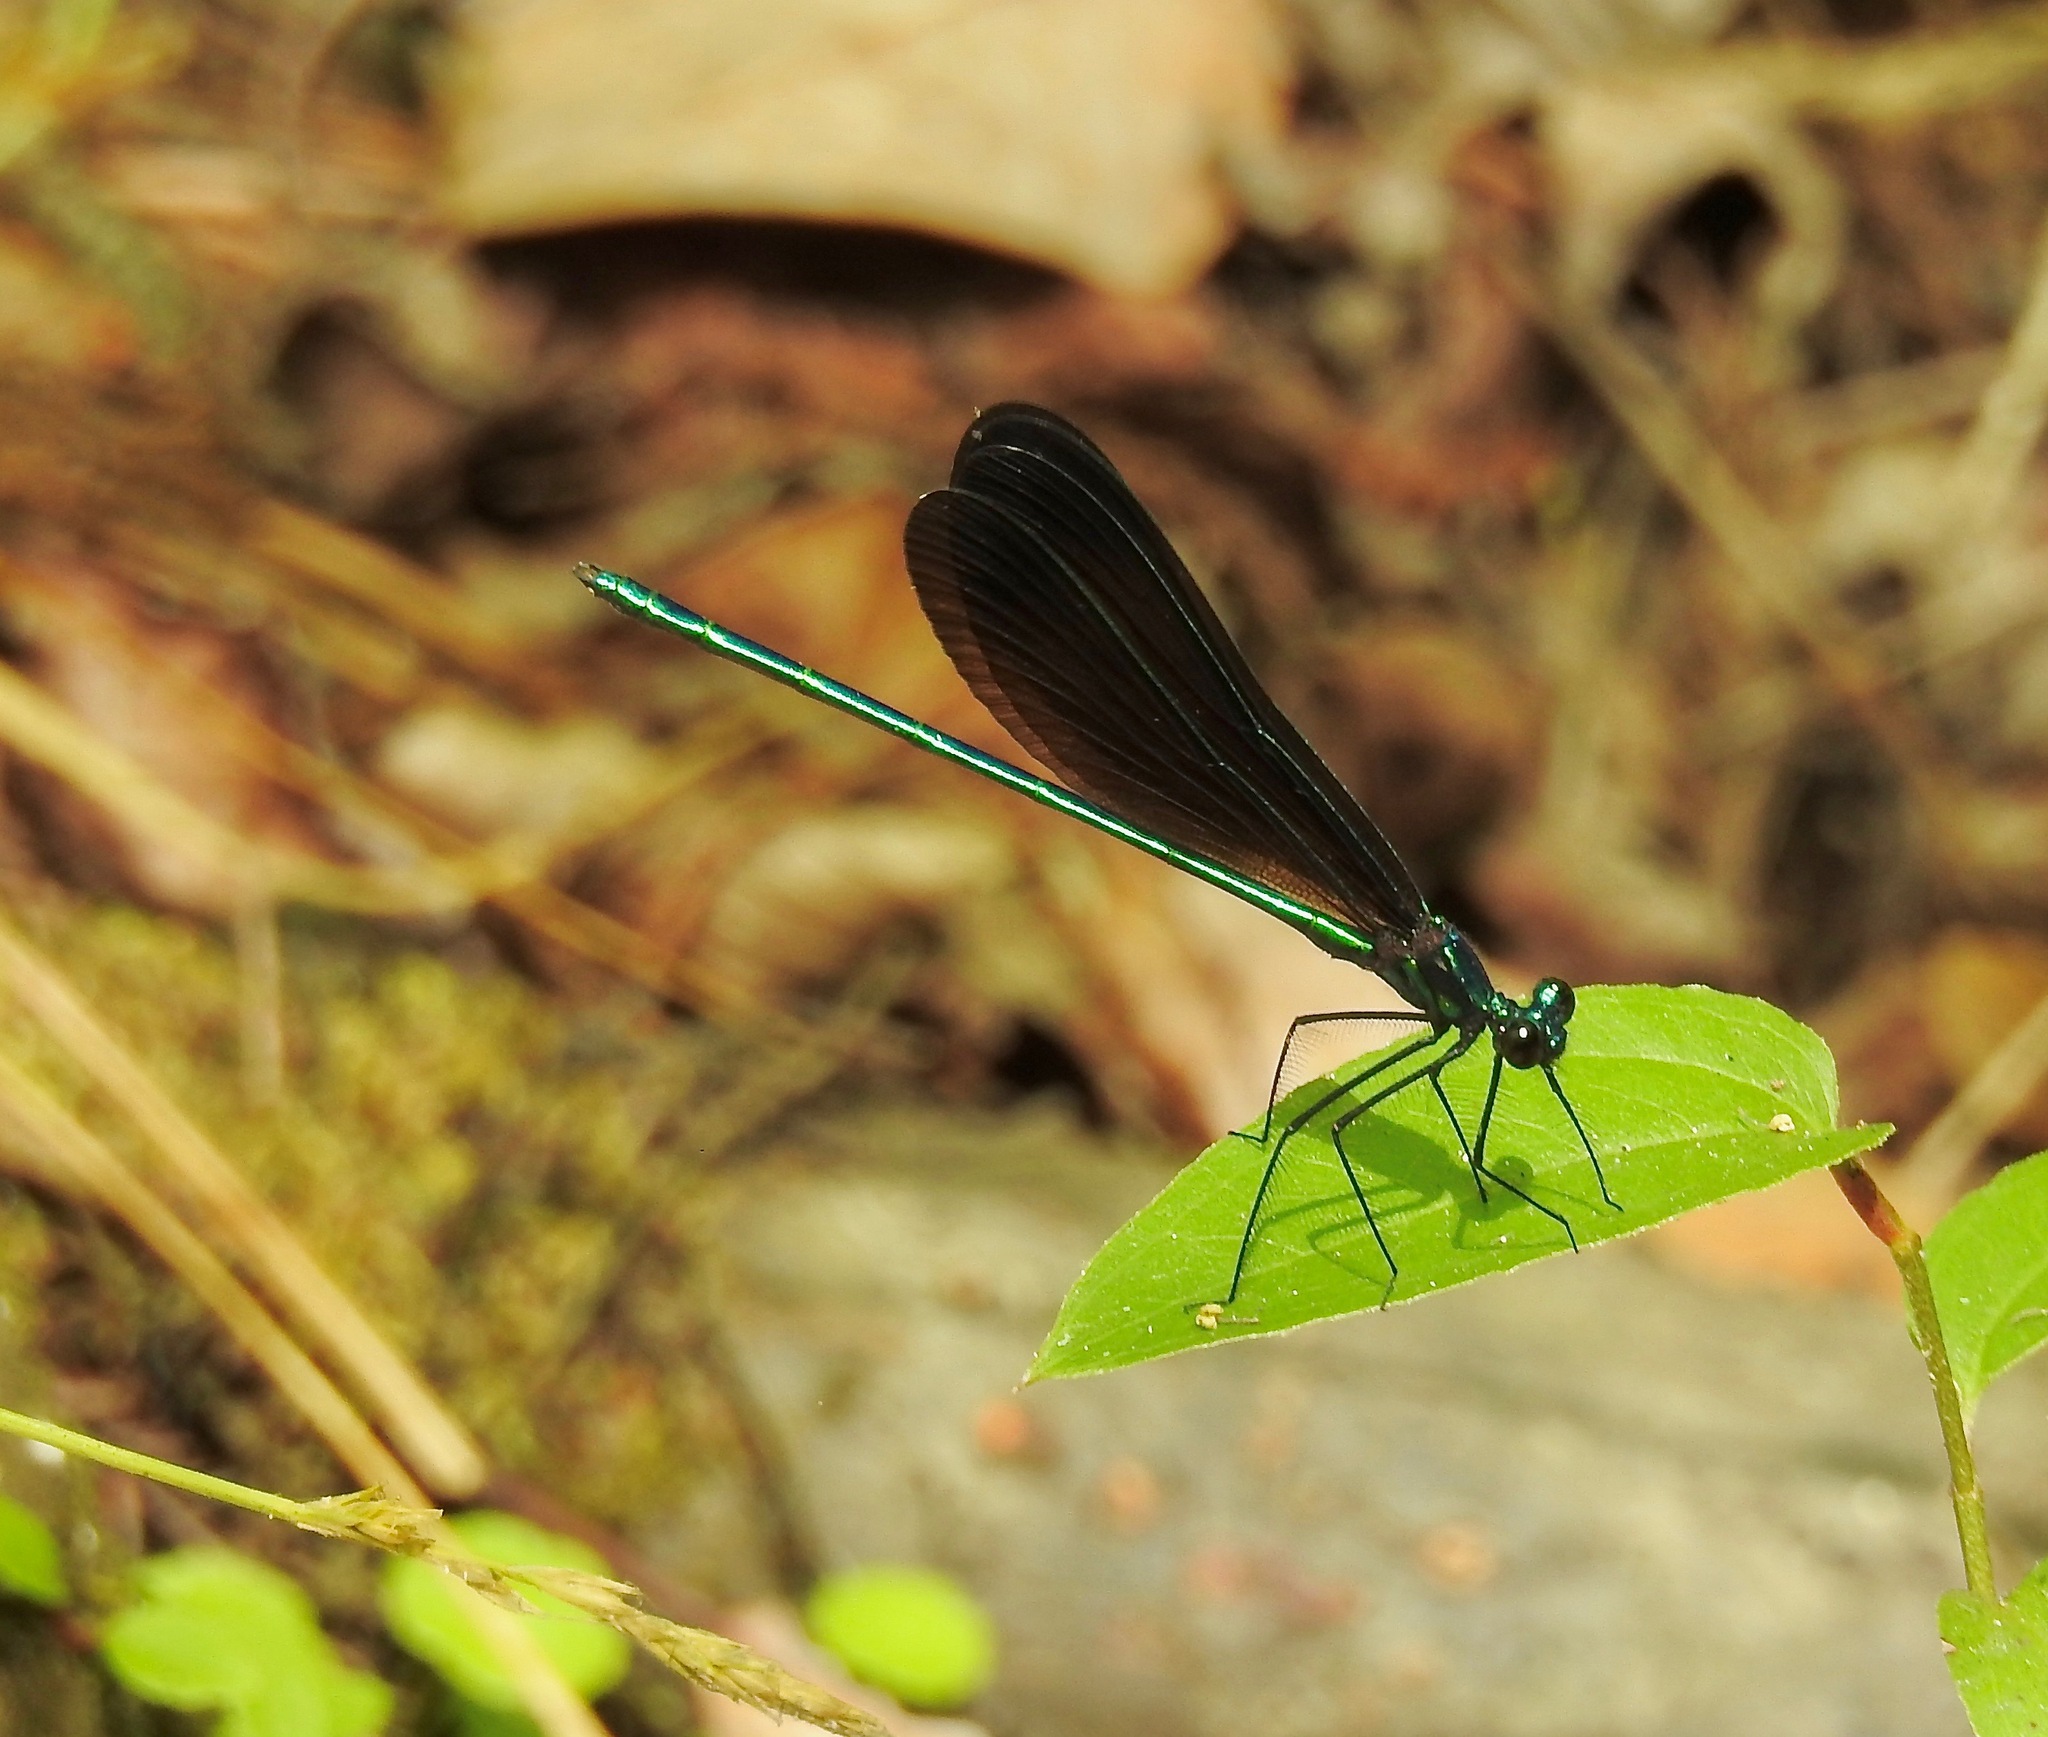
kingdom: Animalia
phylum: Arthropoda
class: Insecta
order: Odonata
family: Calopterygidae
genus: Calopteryx
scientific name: Calopteryx maculata
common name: Ebony jewelwing
